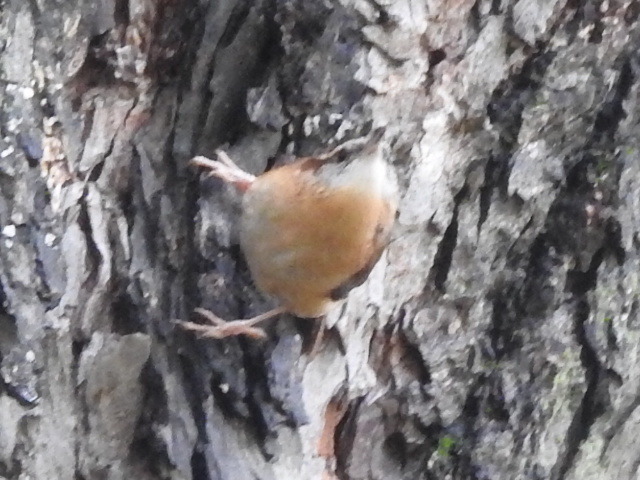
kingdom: Animalia
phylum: Chordata
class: Aves
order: Passeriformes
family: Troglodytidae
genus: Thryothorus
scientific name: Thryothorus ludovicianus
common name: Carolina wren
